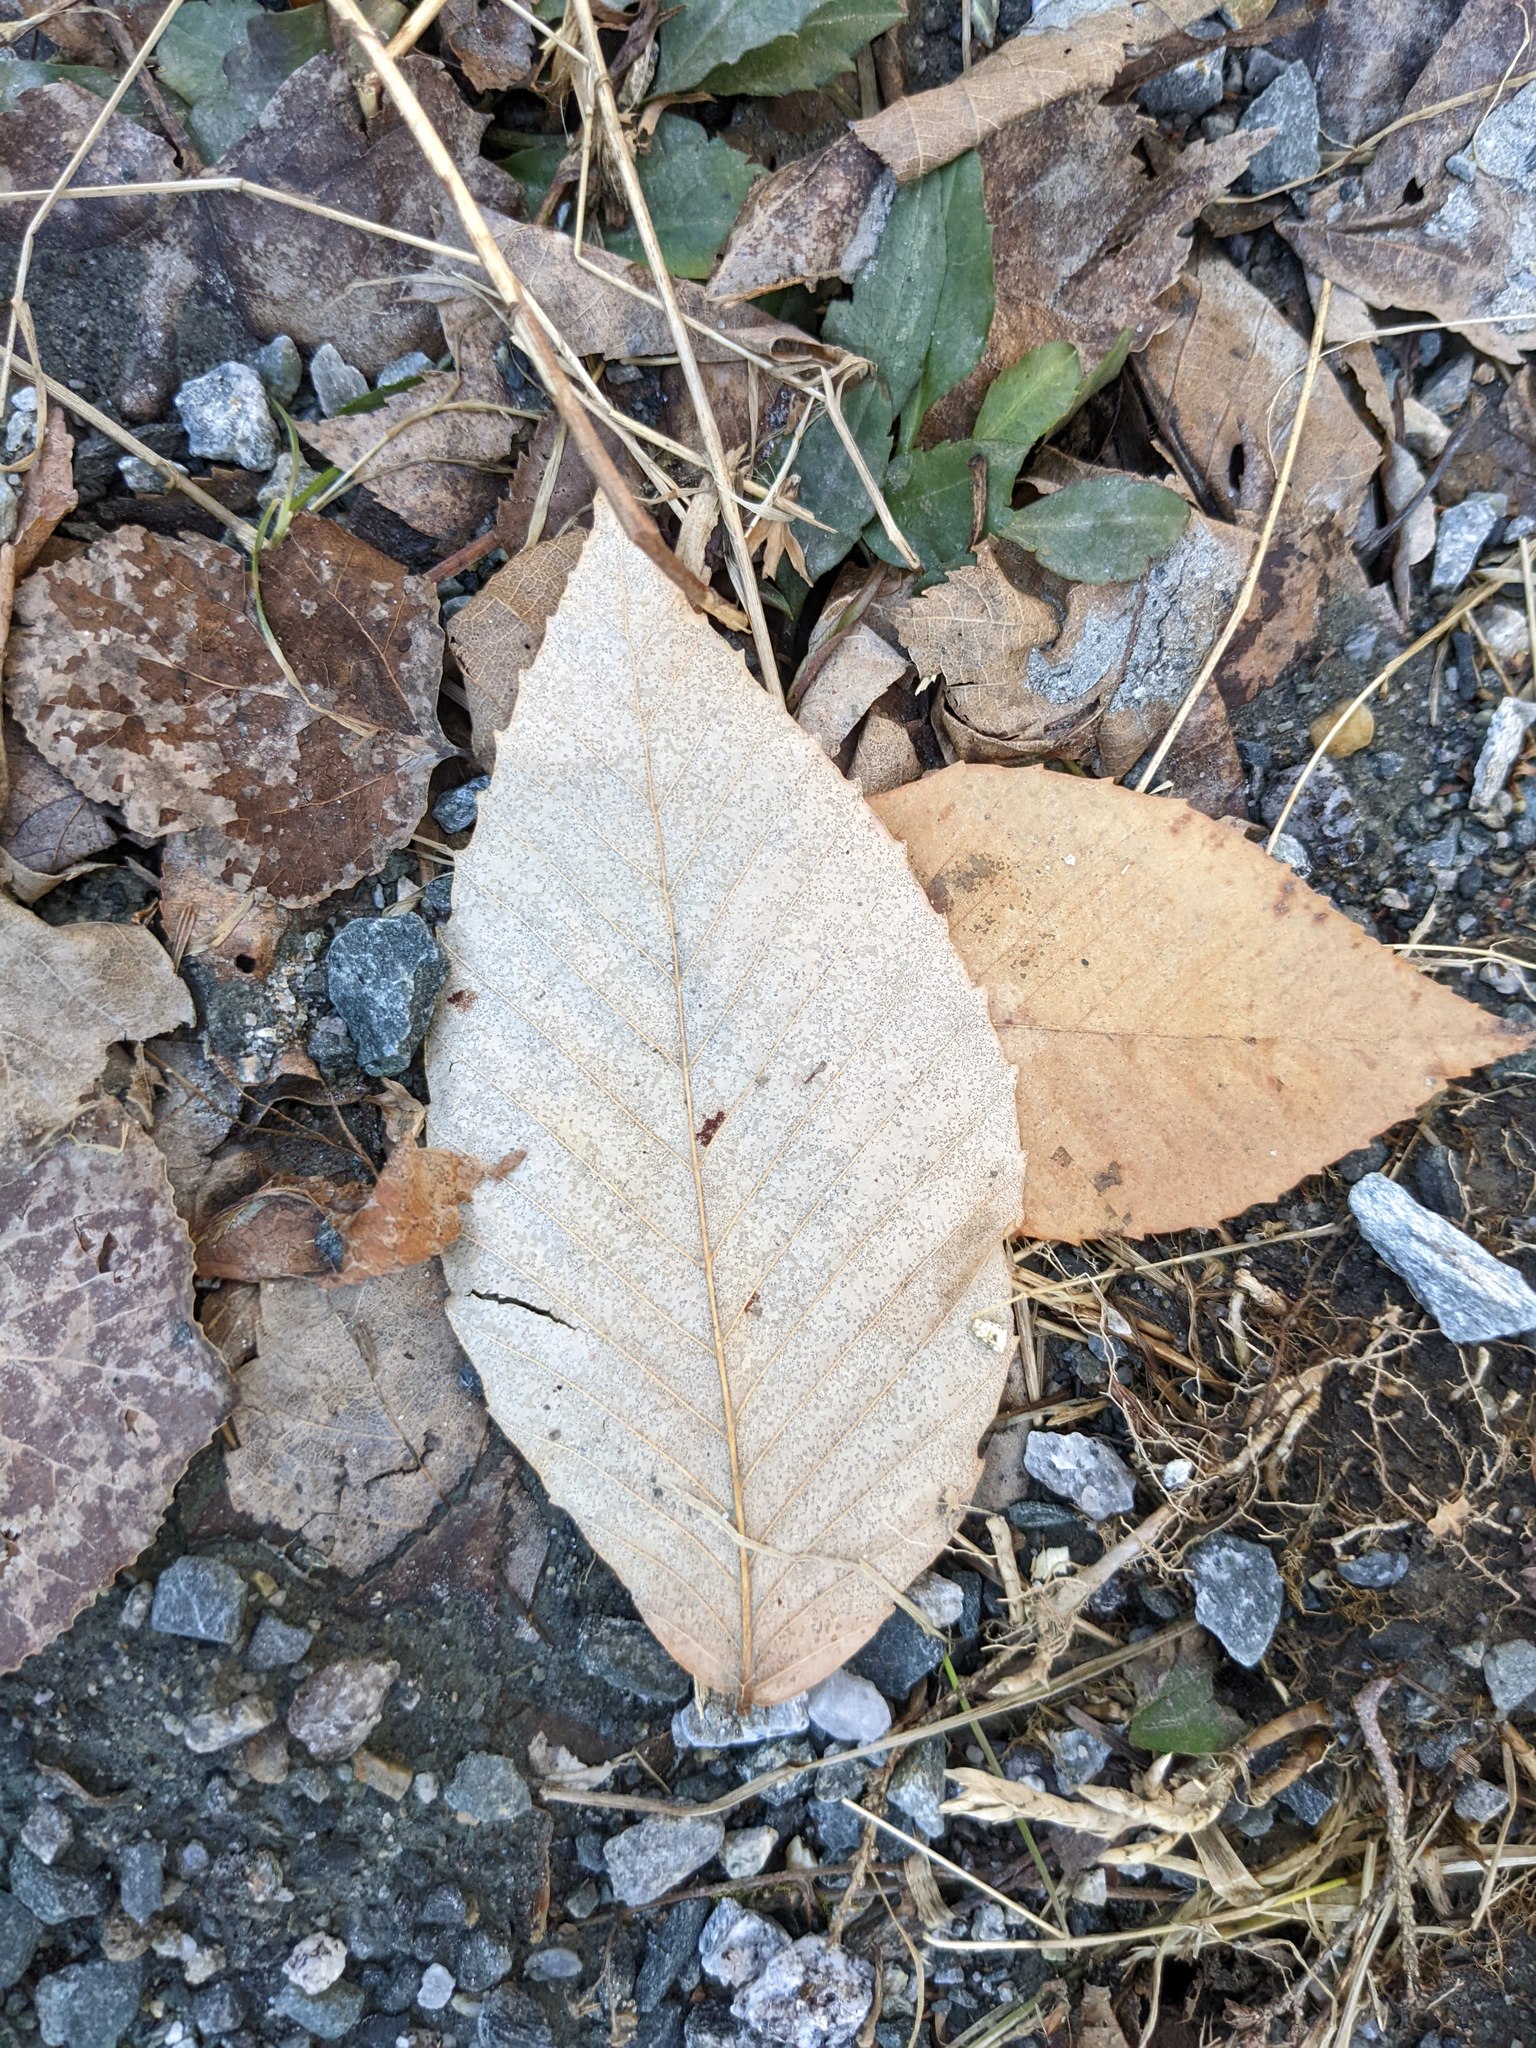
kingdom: Plantae
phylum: Tracheophyta
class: Magnoliopsida
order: Fagales
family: Fagaceae
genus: Fagus
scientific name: Fagus grandifolia
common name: American beech
